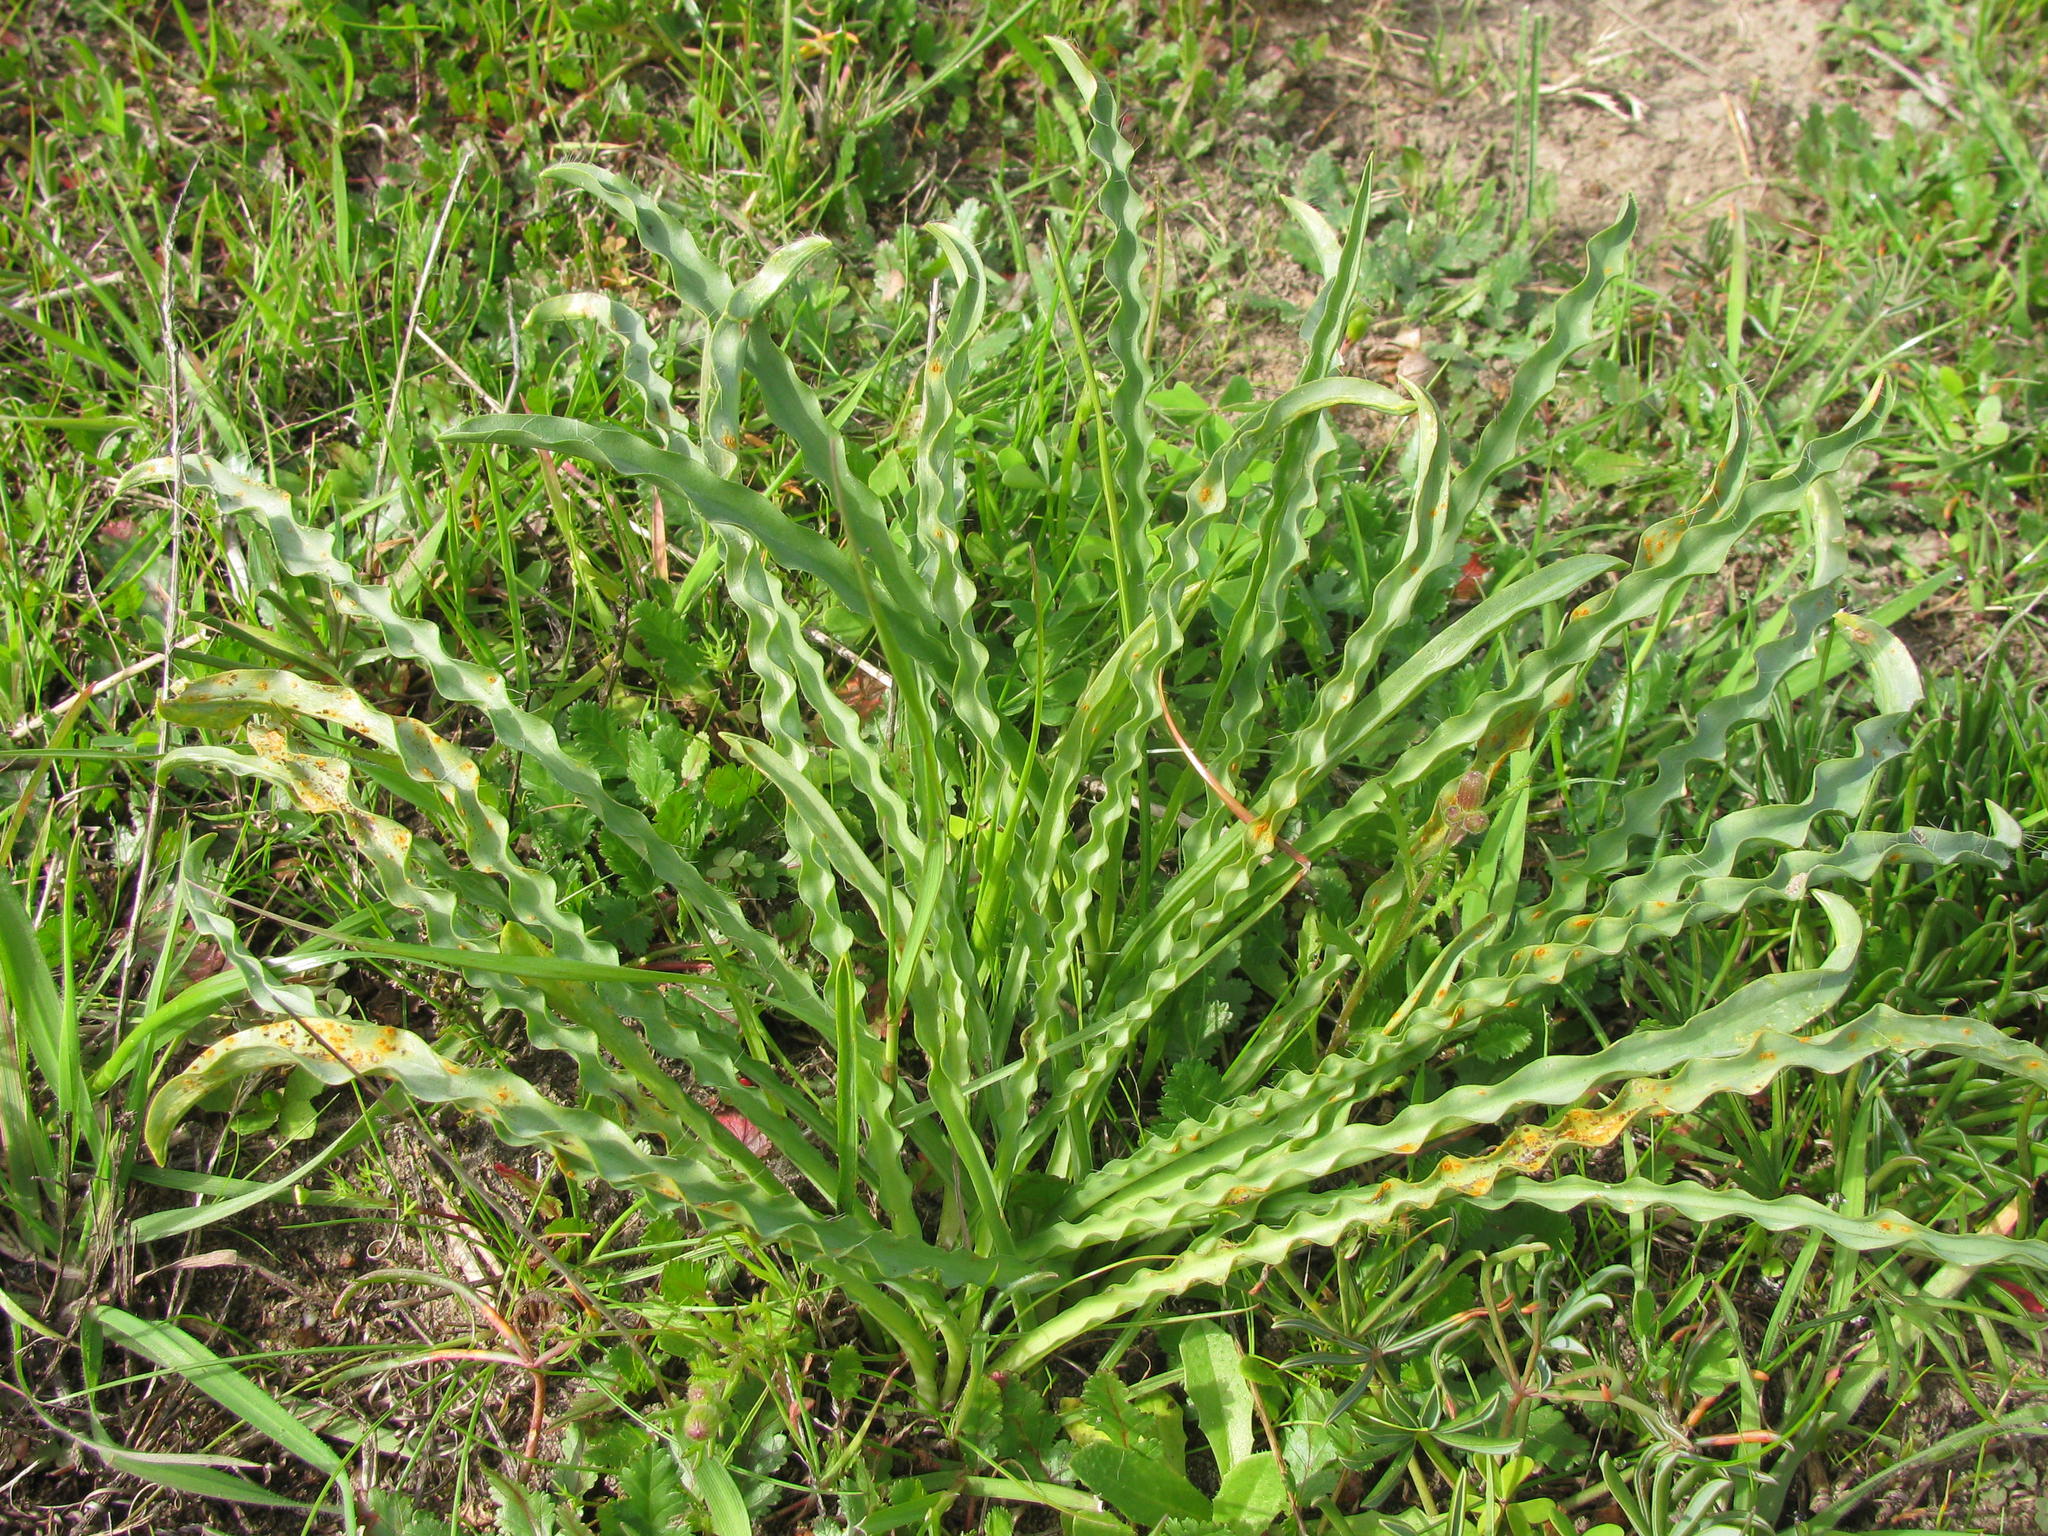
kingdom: Plantae
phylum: Tracheophyta
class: Liliopsida
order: Asparagales
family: Asparagaceae
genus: Drimia
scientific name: Drimia elata
